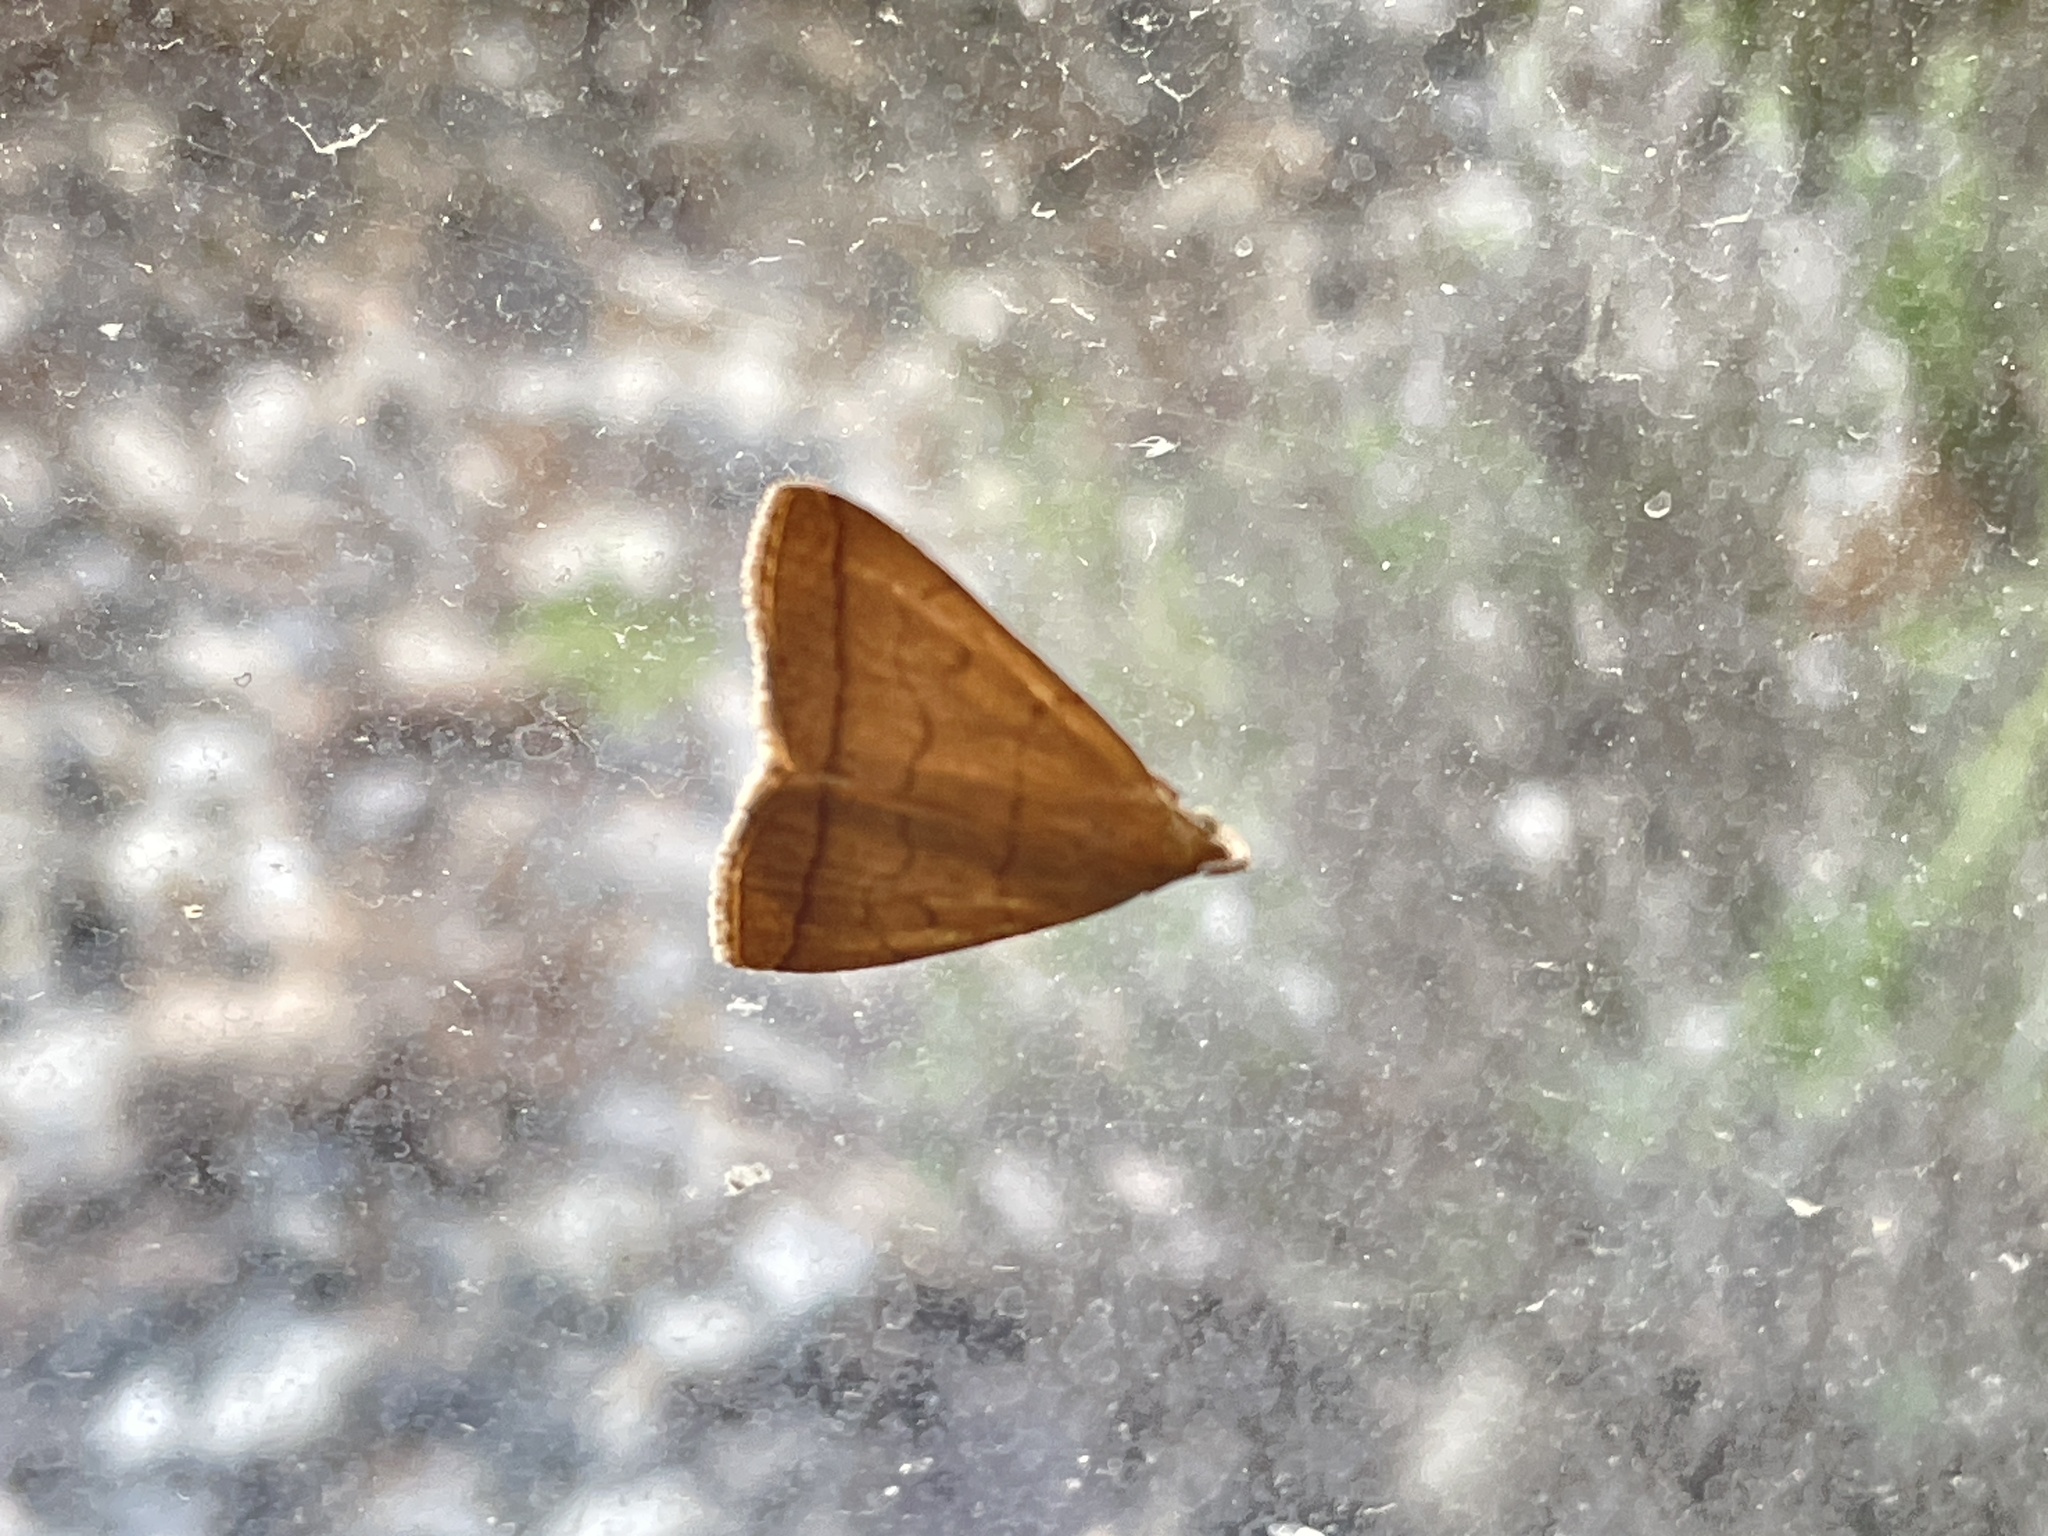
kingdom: Animalia
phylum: Arthropoda
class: Insecta
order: Lepidoptera
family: Erebidae
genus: Herminia
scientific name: Herminia tarsipennalis
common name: Fan-foot
